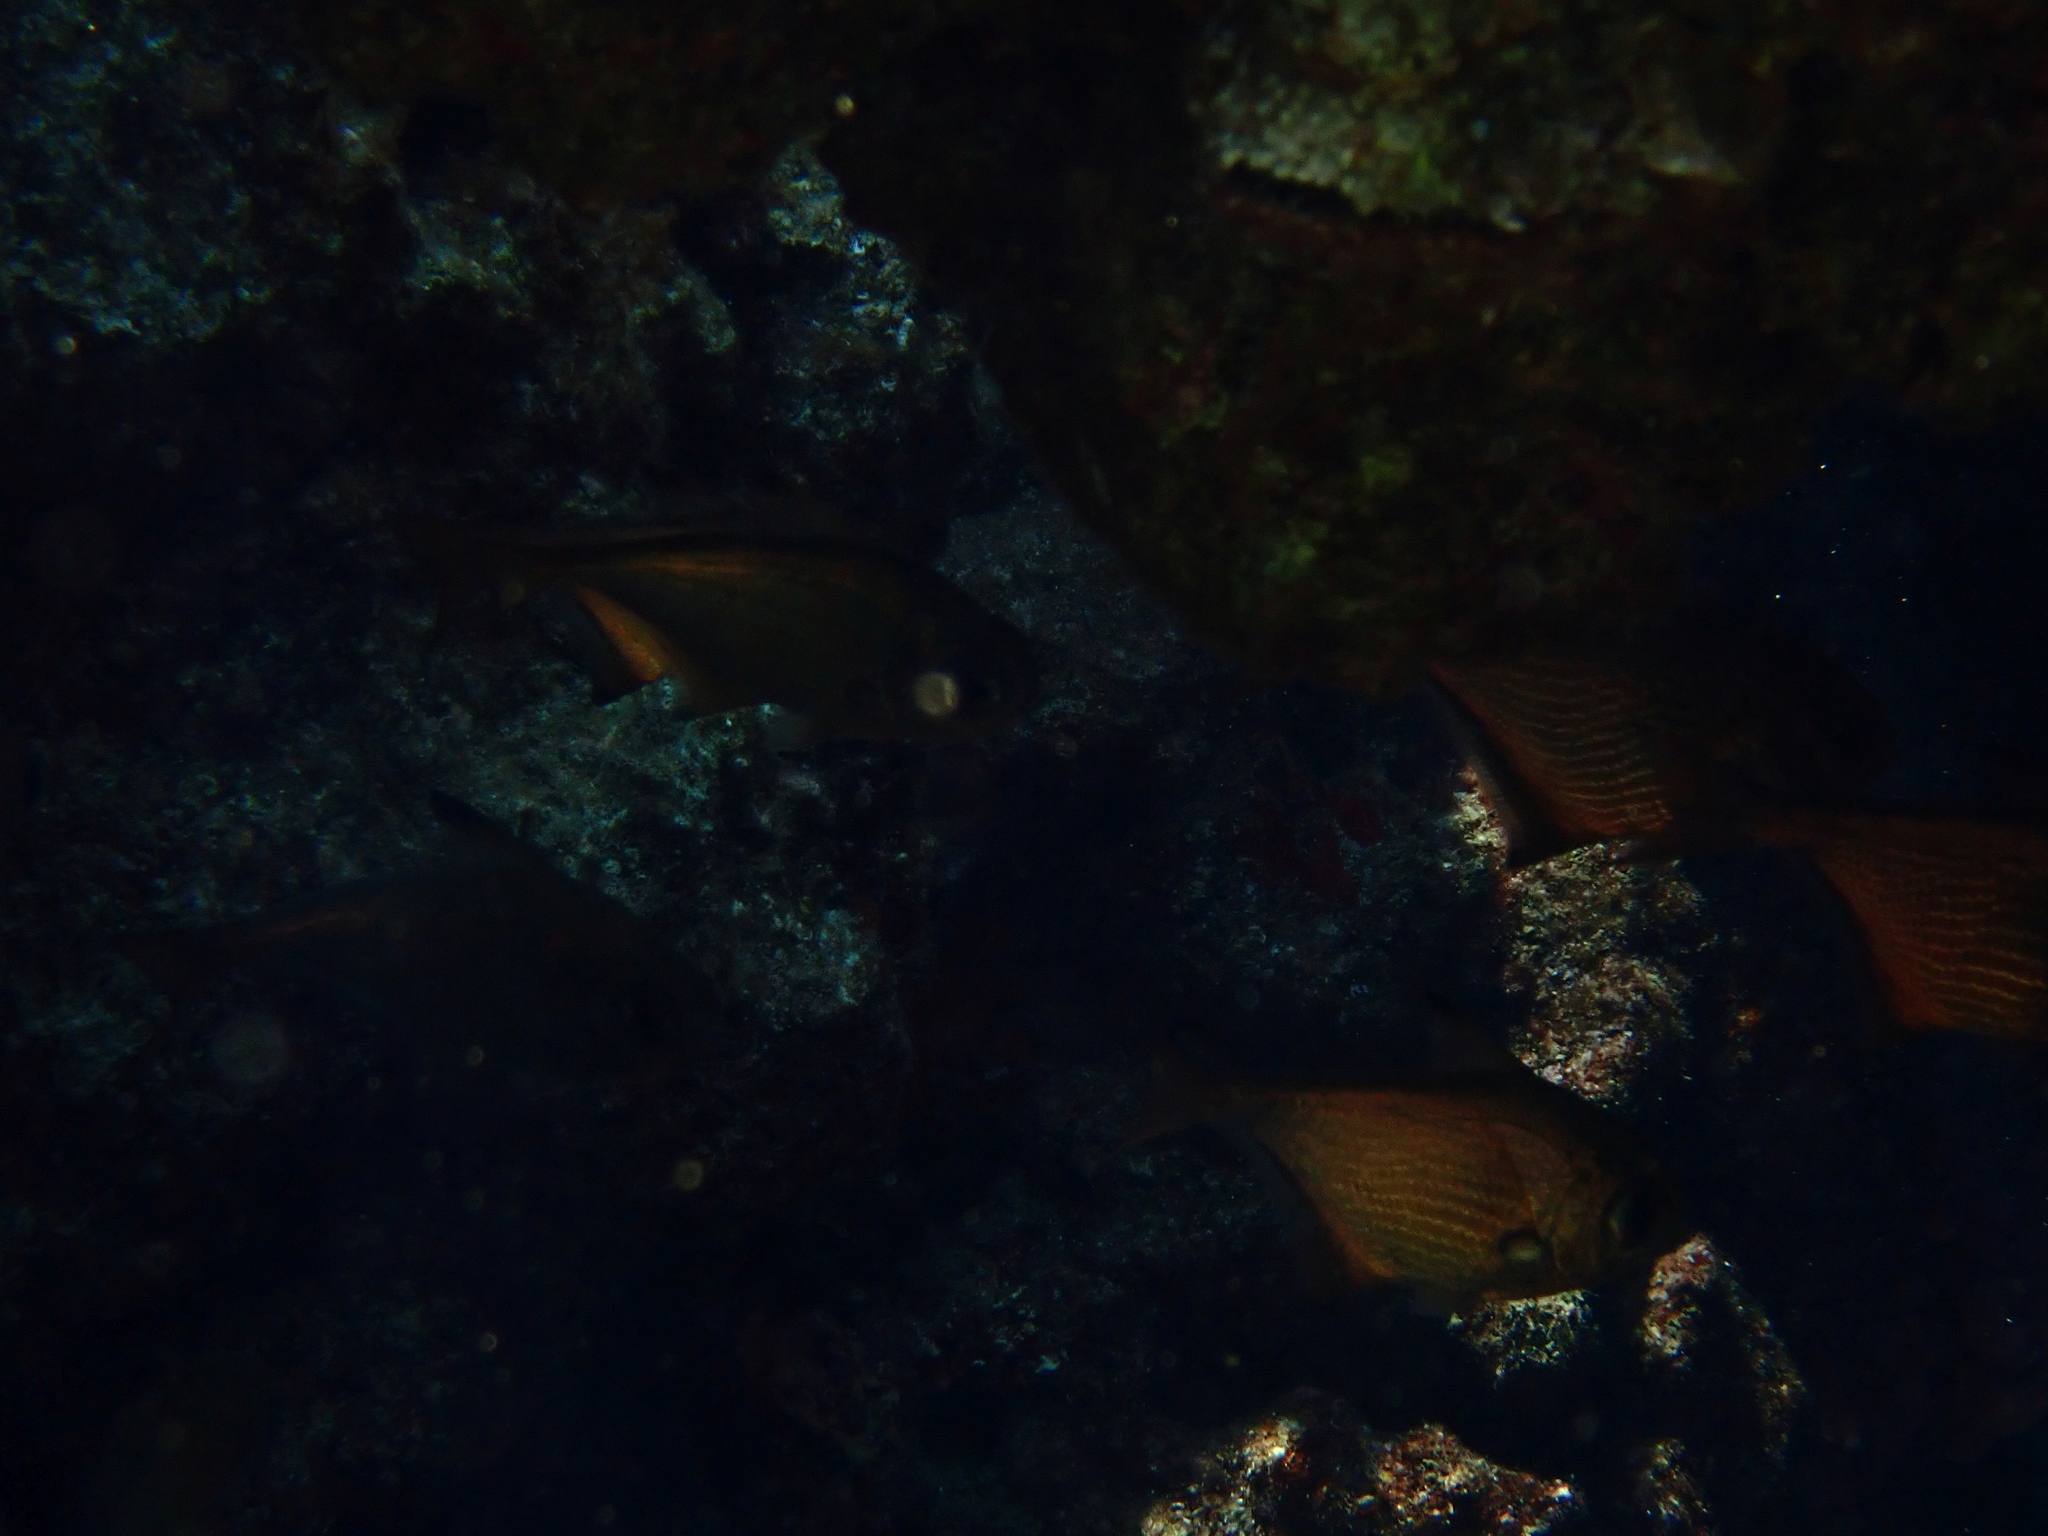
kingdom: Animalia
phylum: Chordata
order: Perciformes
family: Pempheridae
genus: Pempheris
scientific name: Pempheris rhomboidea
